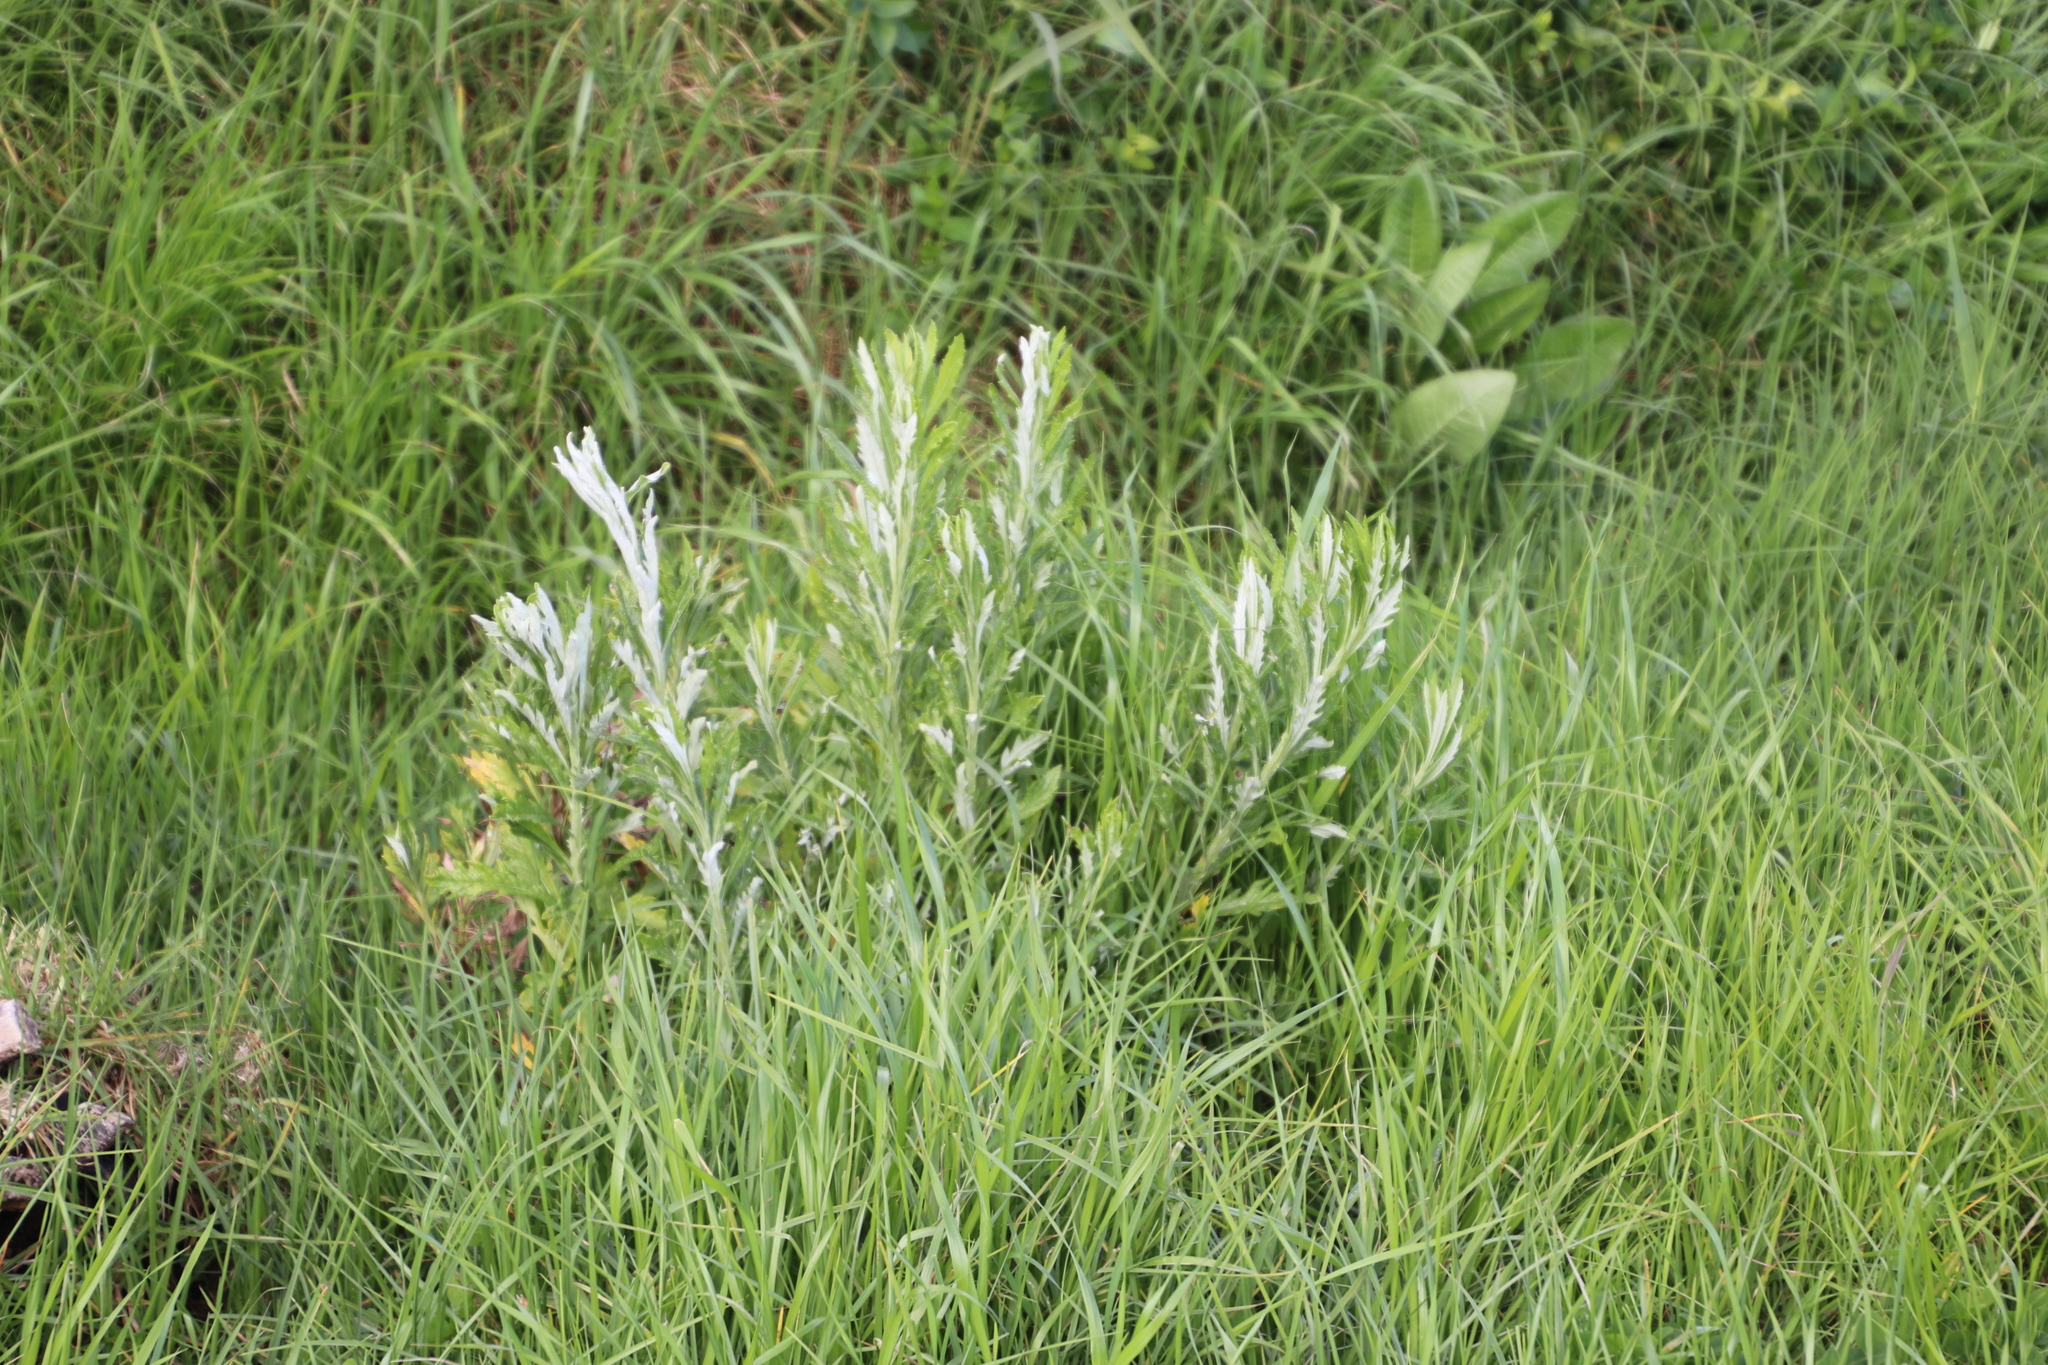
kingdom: Plantae
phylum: Tracheophyta
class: Magnoliopsida
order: Asterales
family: Asteraceae
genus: Senecio
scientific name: Senecio pterophorus
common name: Shoddy ragwort
